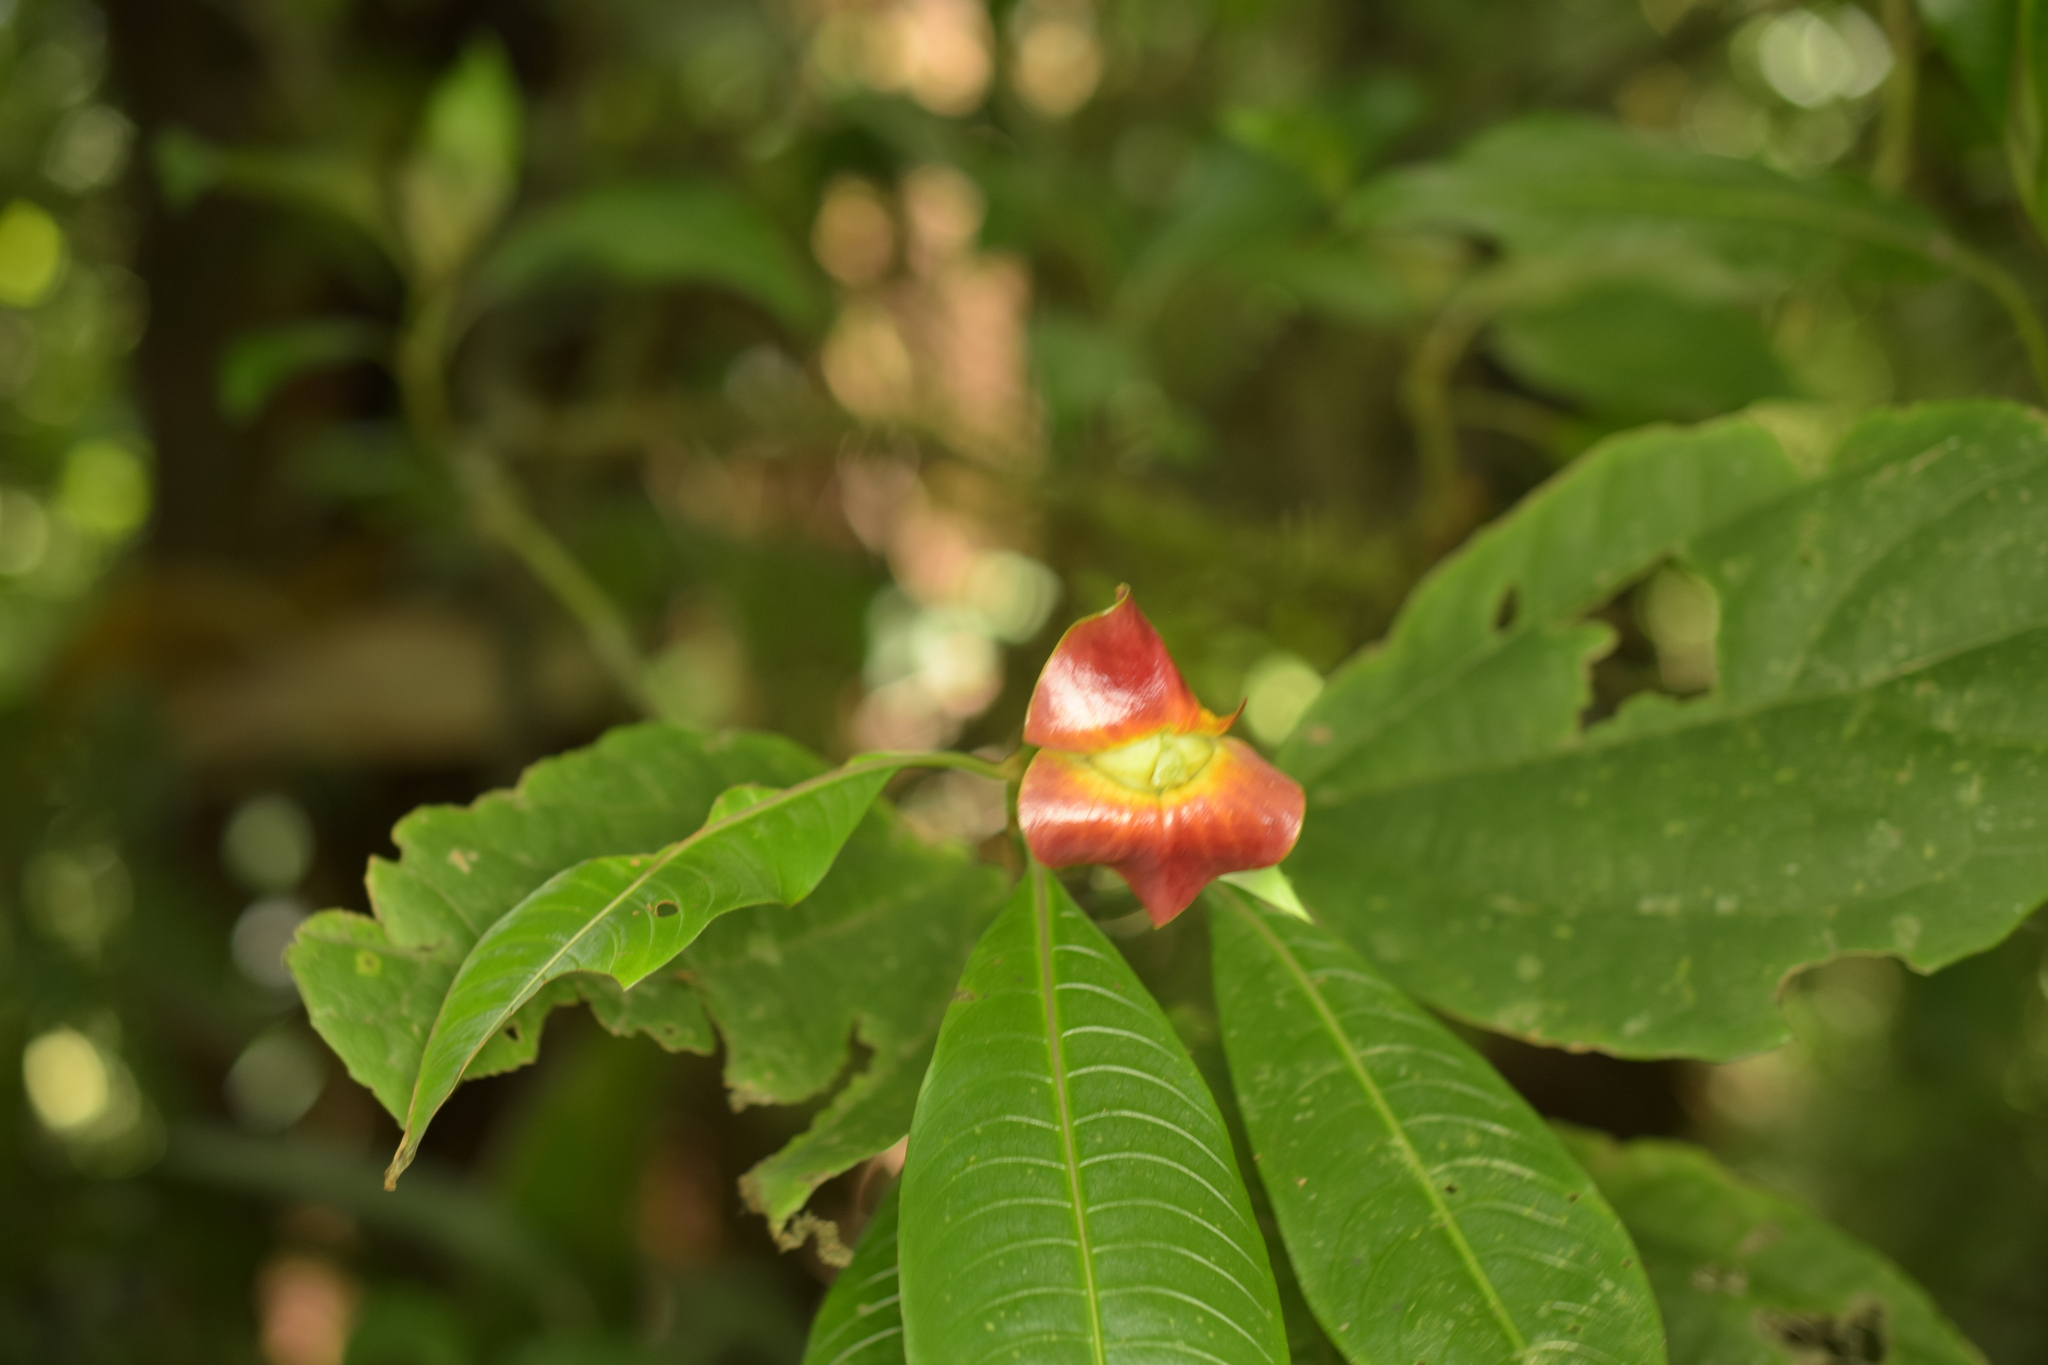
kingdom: Plantae
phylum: Tracheophyta
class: Magnoliopsida
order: Gentianales
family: Rubiaceae
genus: Palicourea
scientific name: Palicourea elata
